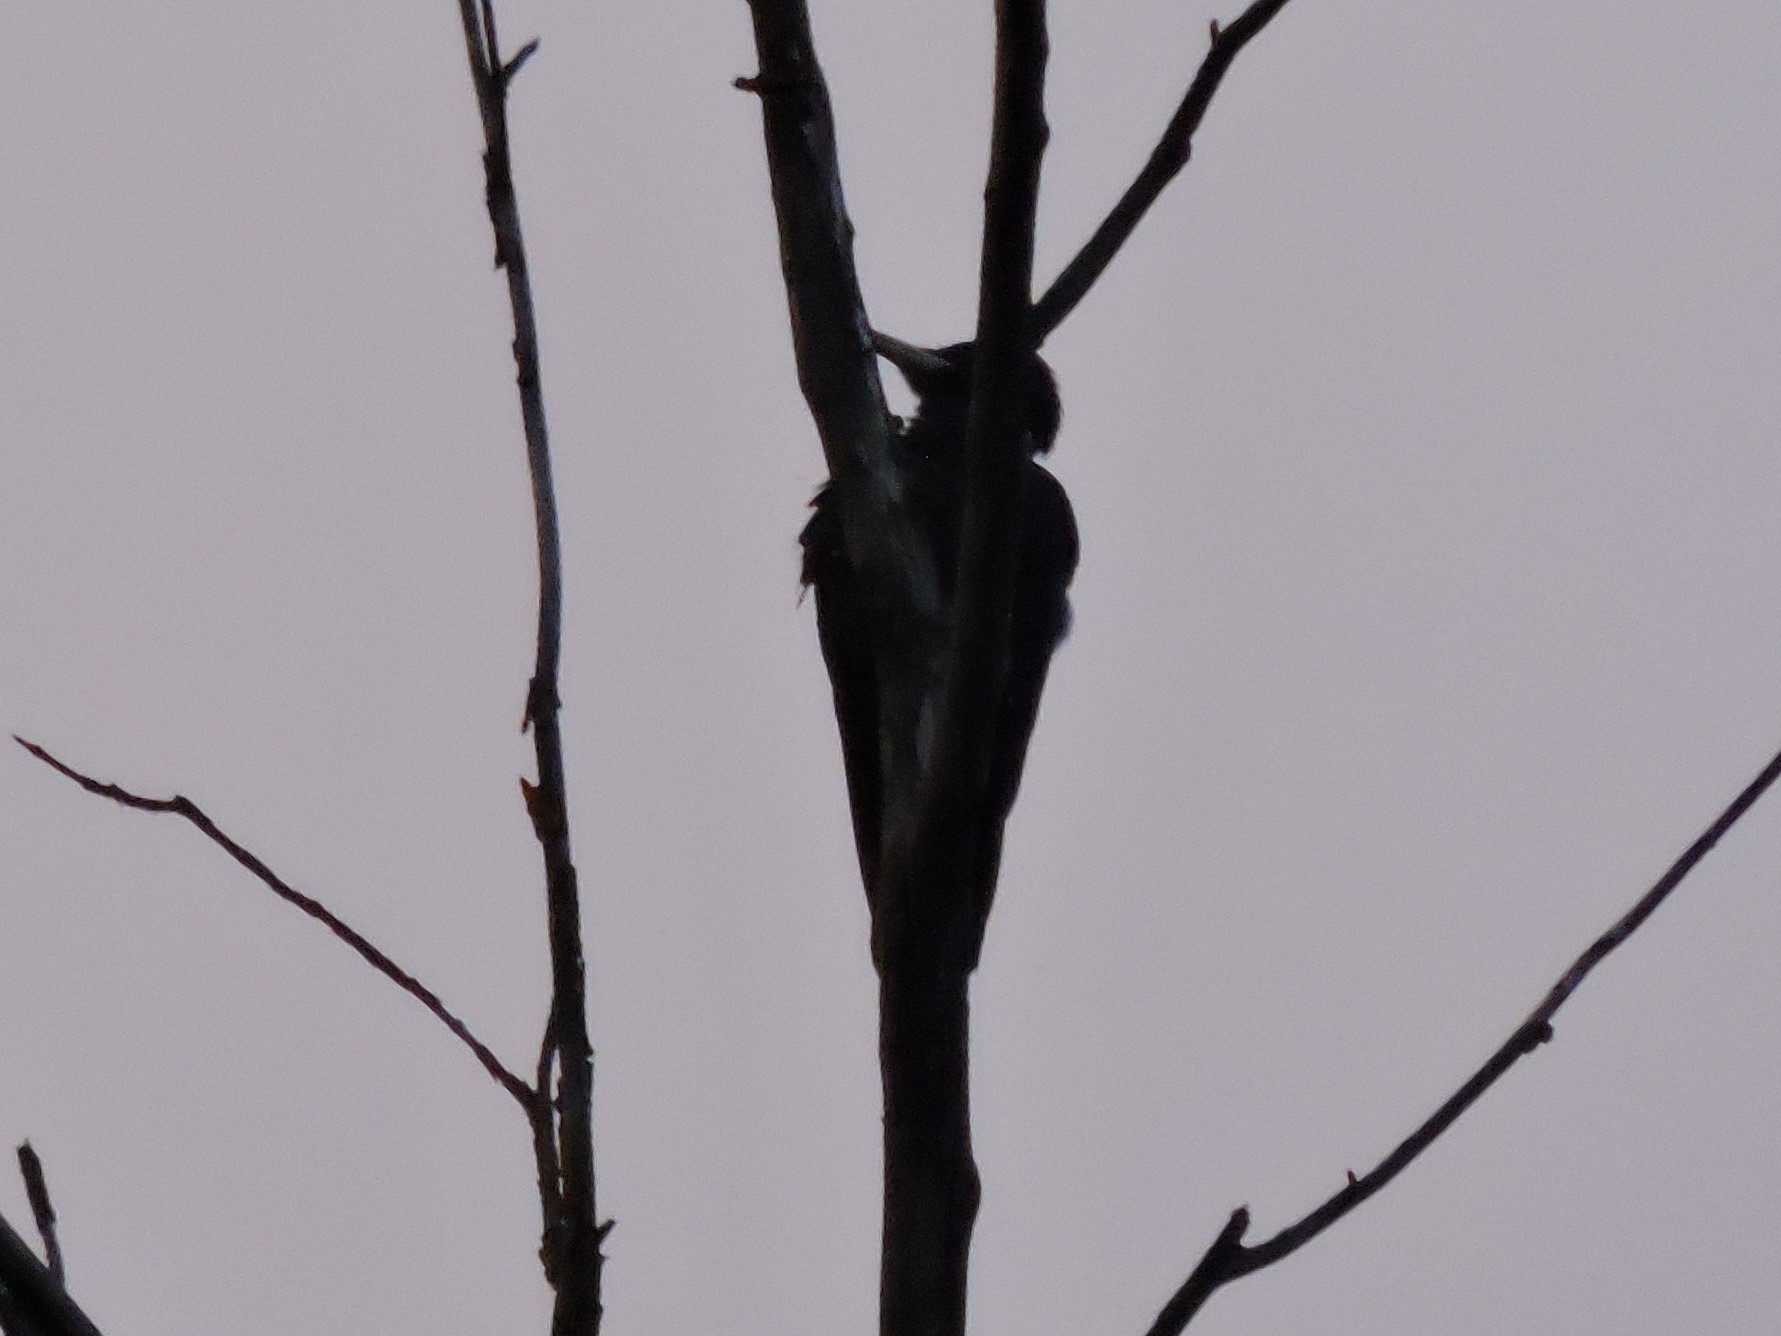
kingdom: Animalia
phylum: Chordata
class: Aves
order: Piciformes
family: Picidae
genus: Dryocopus
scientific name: Dryocopus martius
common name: Black woodpecker
